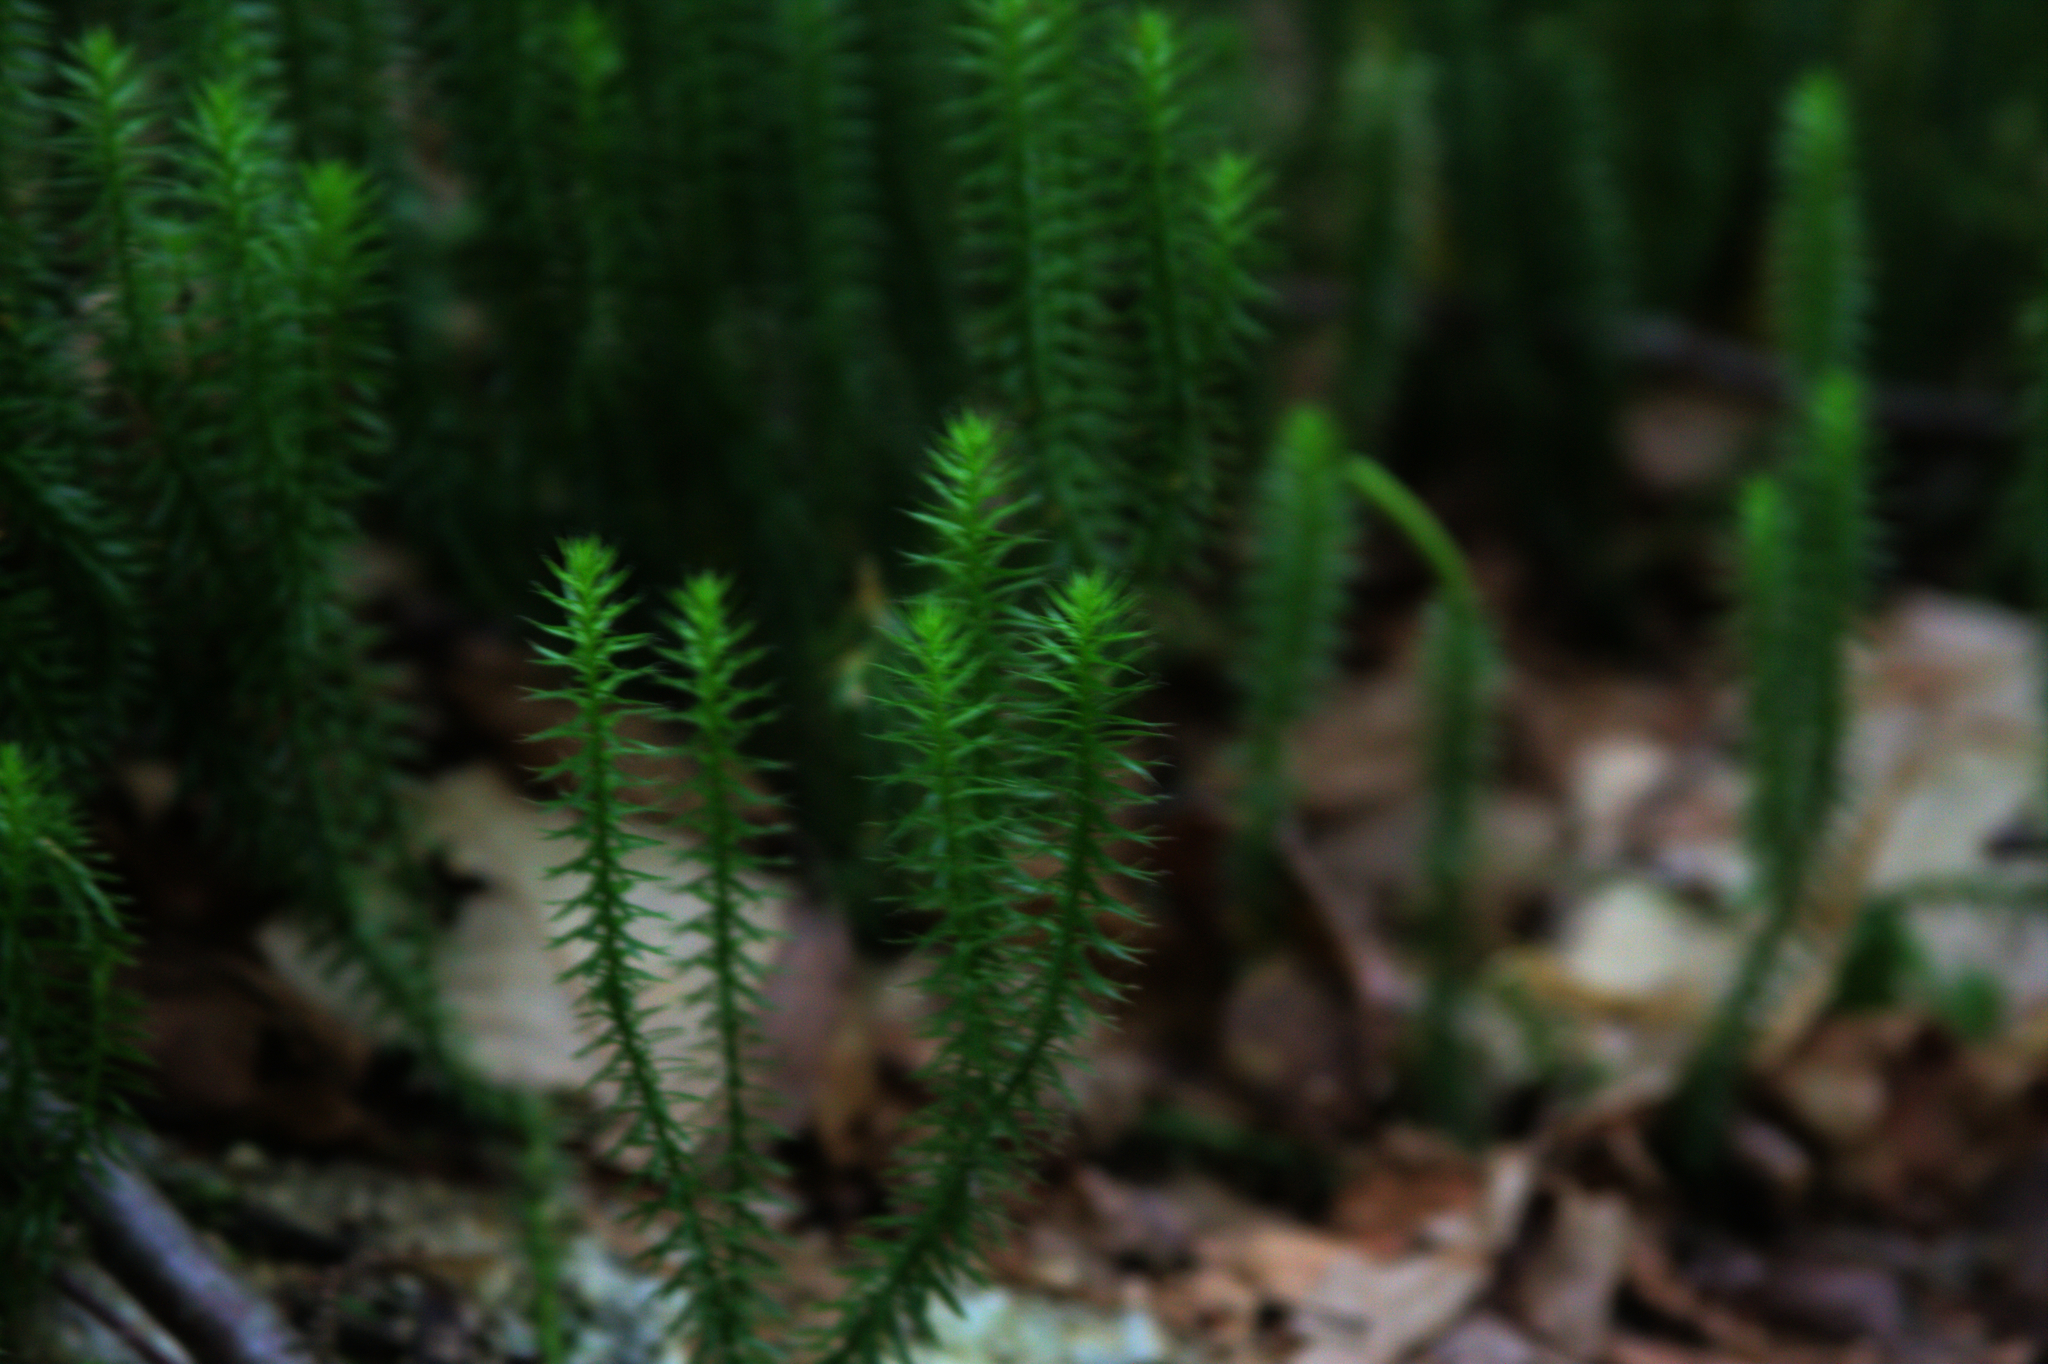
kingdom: Plantae
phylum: Tracheophyta
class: Lycopodiopsida
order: Lycopodiales
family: Lycopodiaceae
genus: Spinulum
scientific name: Spinulum annotinum
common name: Interrupted club-moss
